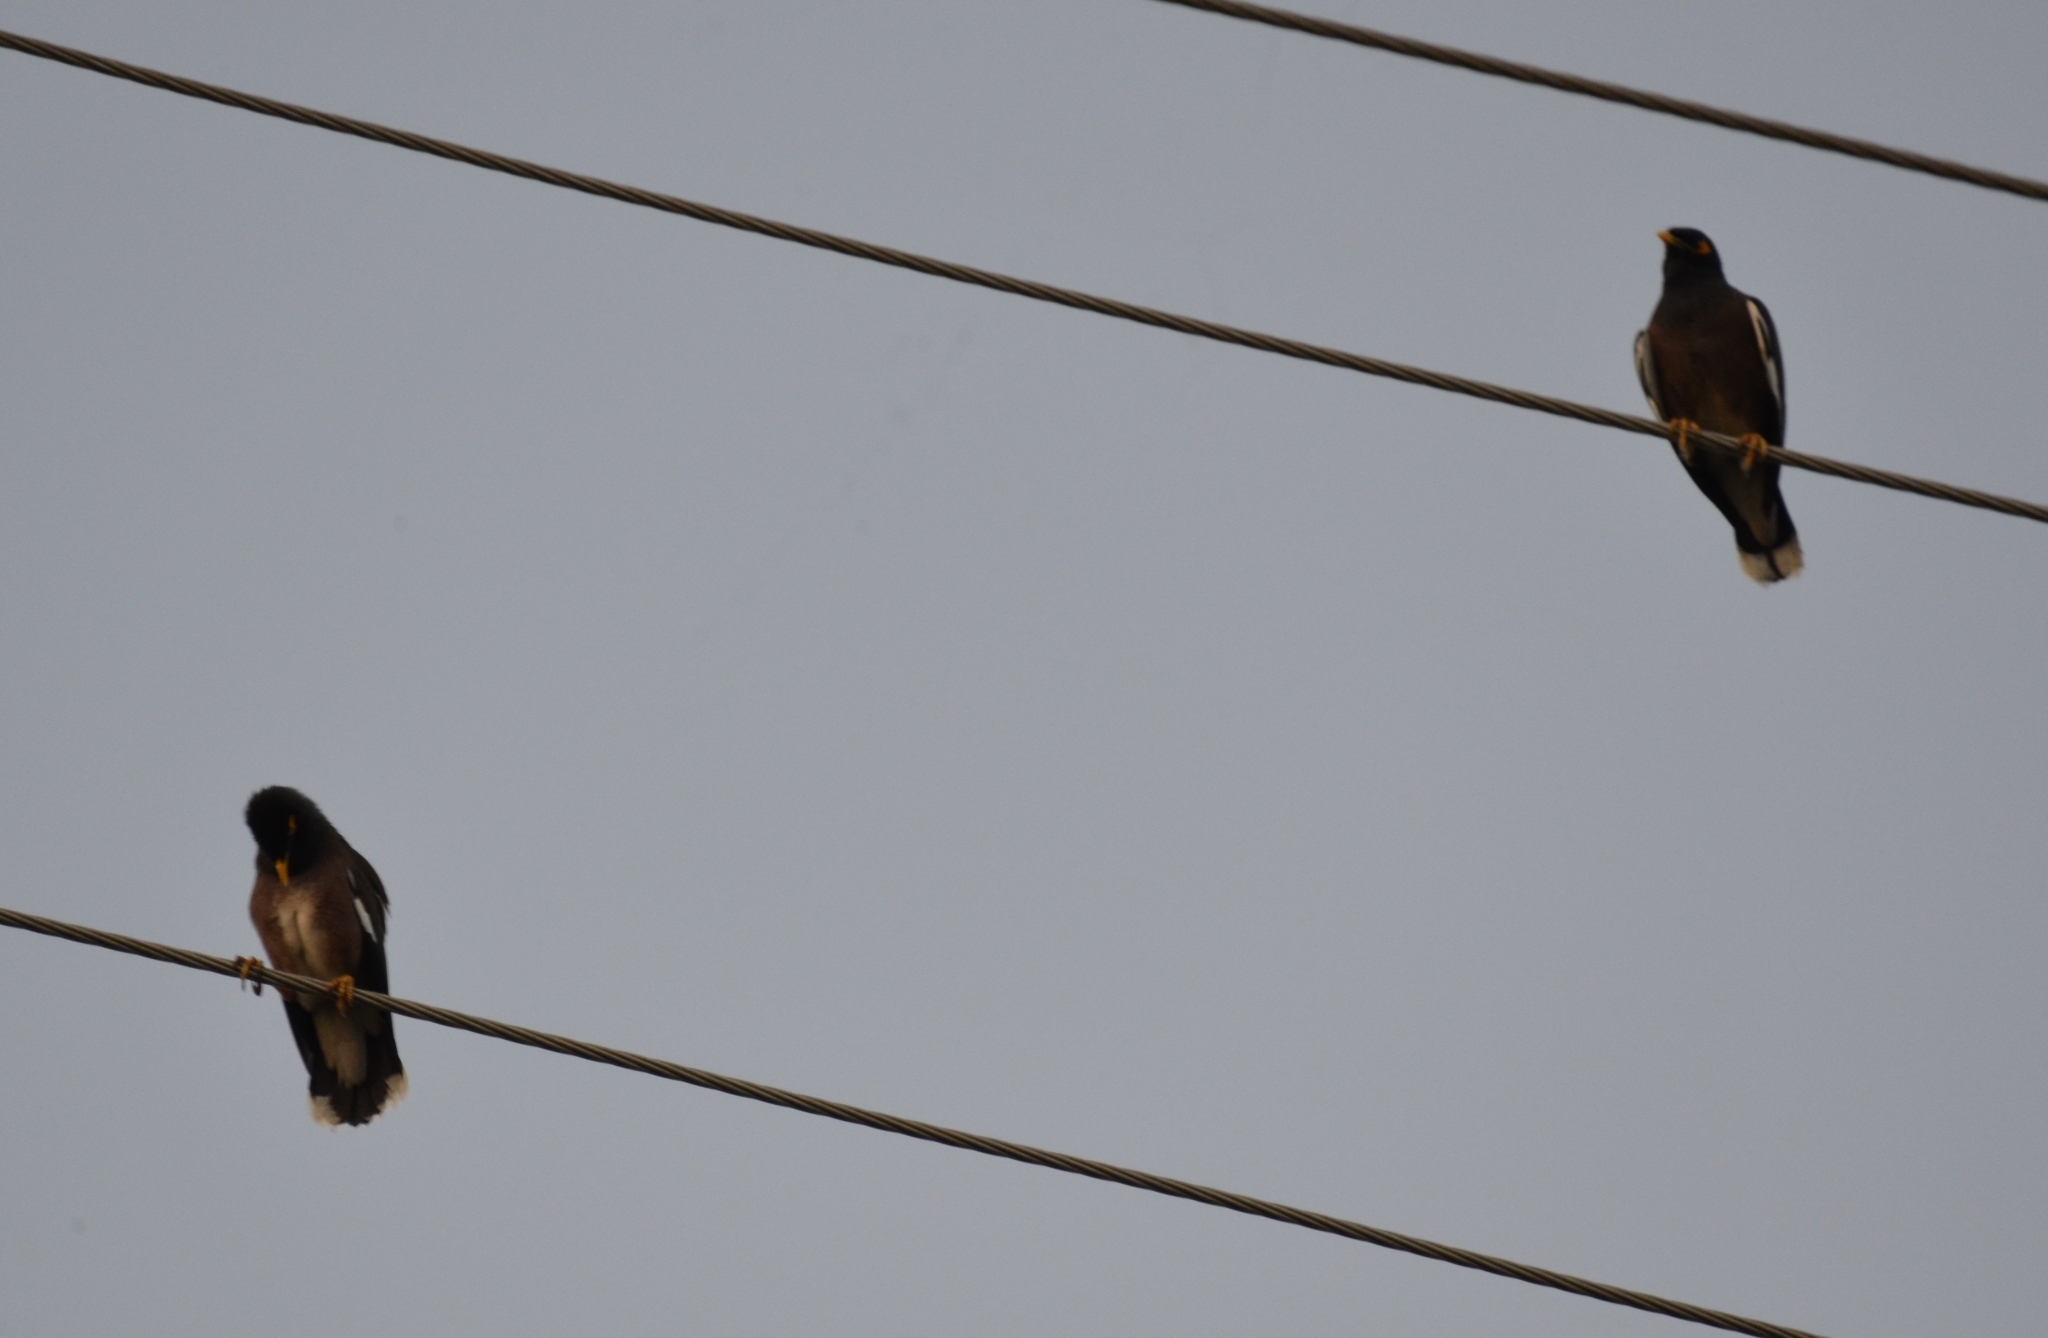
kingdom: Animalia
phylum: Chordata
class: Aves
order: Passeriformes
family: Sturnidae
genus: Acridotheres
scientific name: Acridotheres tristis
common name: Common myna
